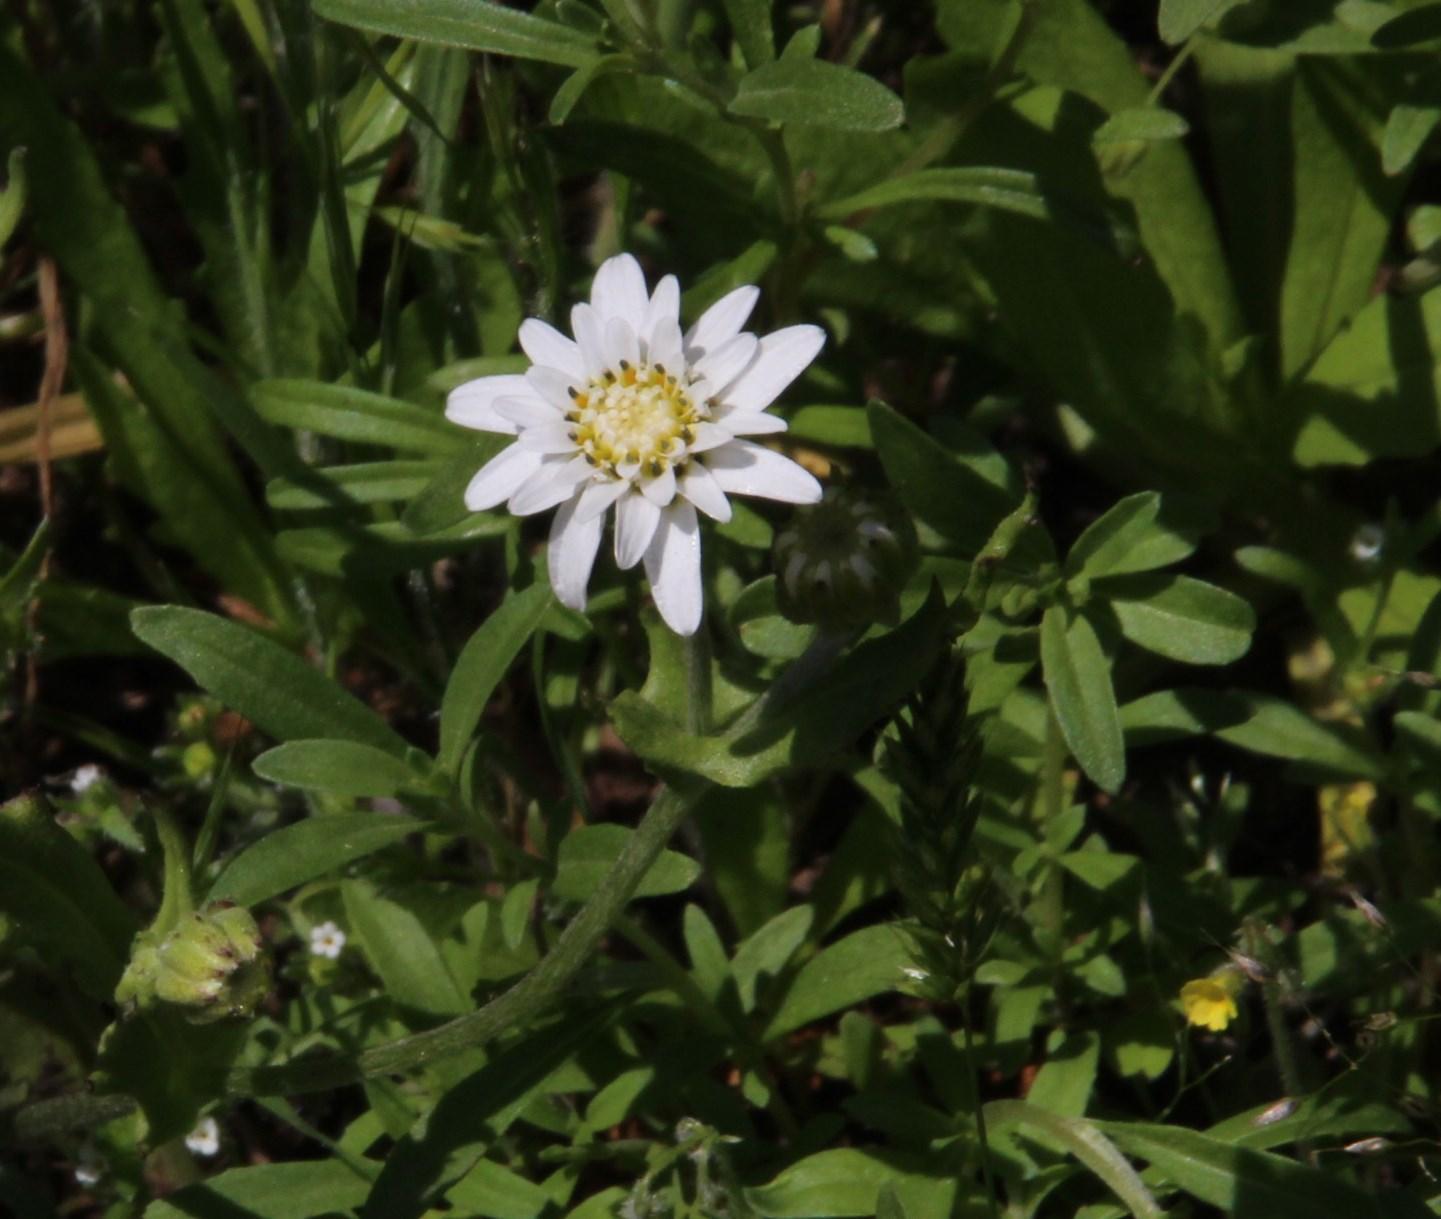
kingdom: Plantae
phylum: Tracheophyta
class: Magnoliopsida
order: Asterales
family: Asteraceae
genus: Leucheria
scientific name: Leucheria cerberoana
